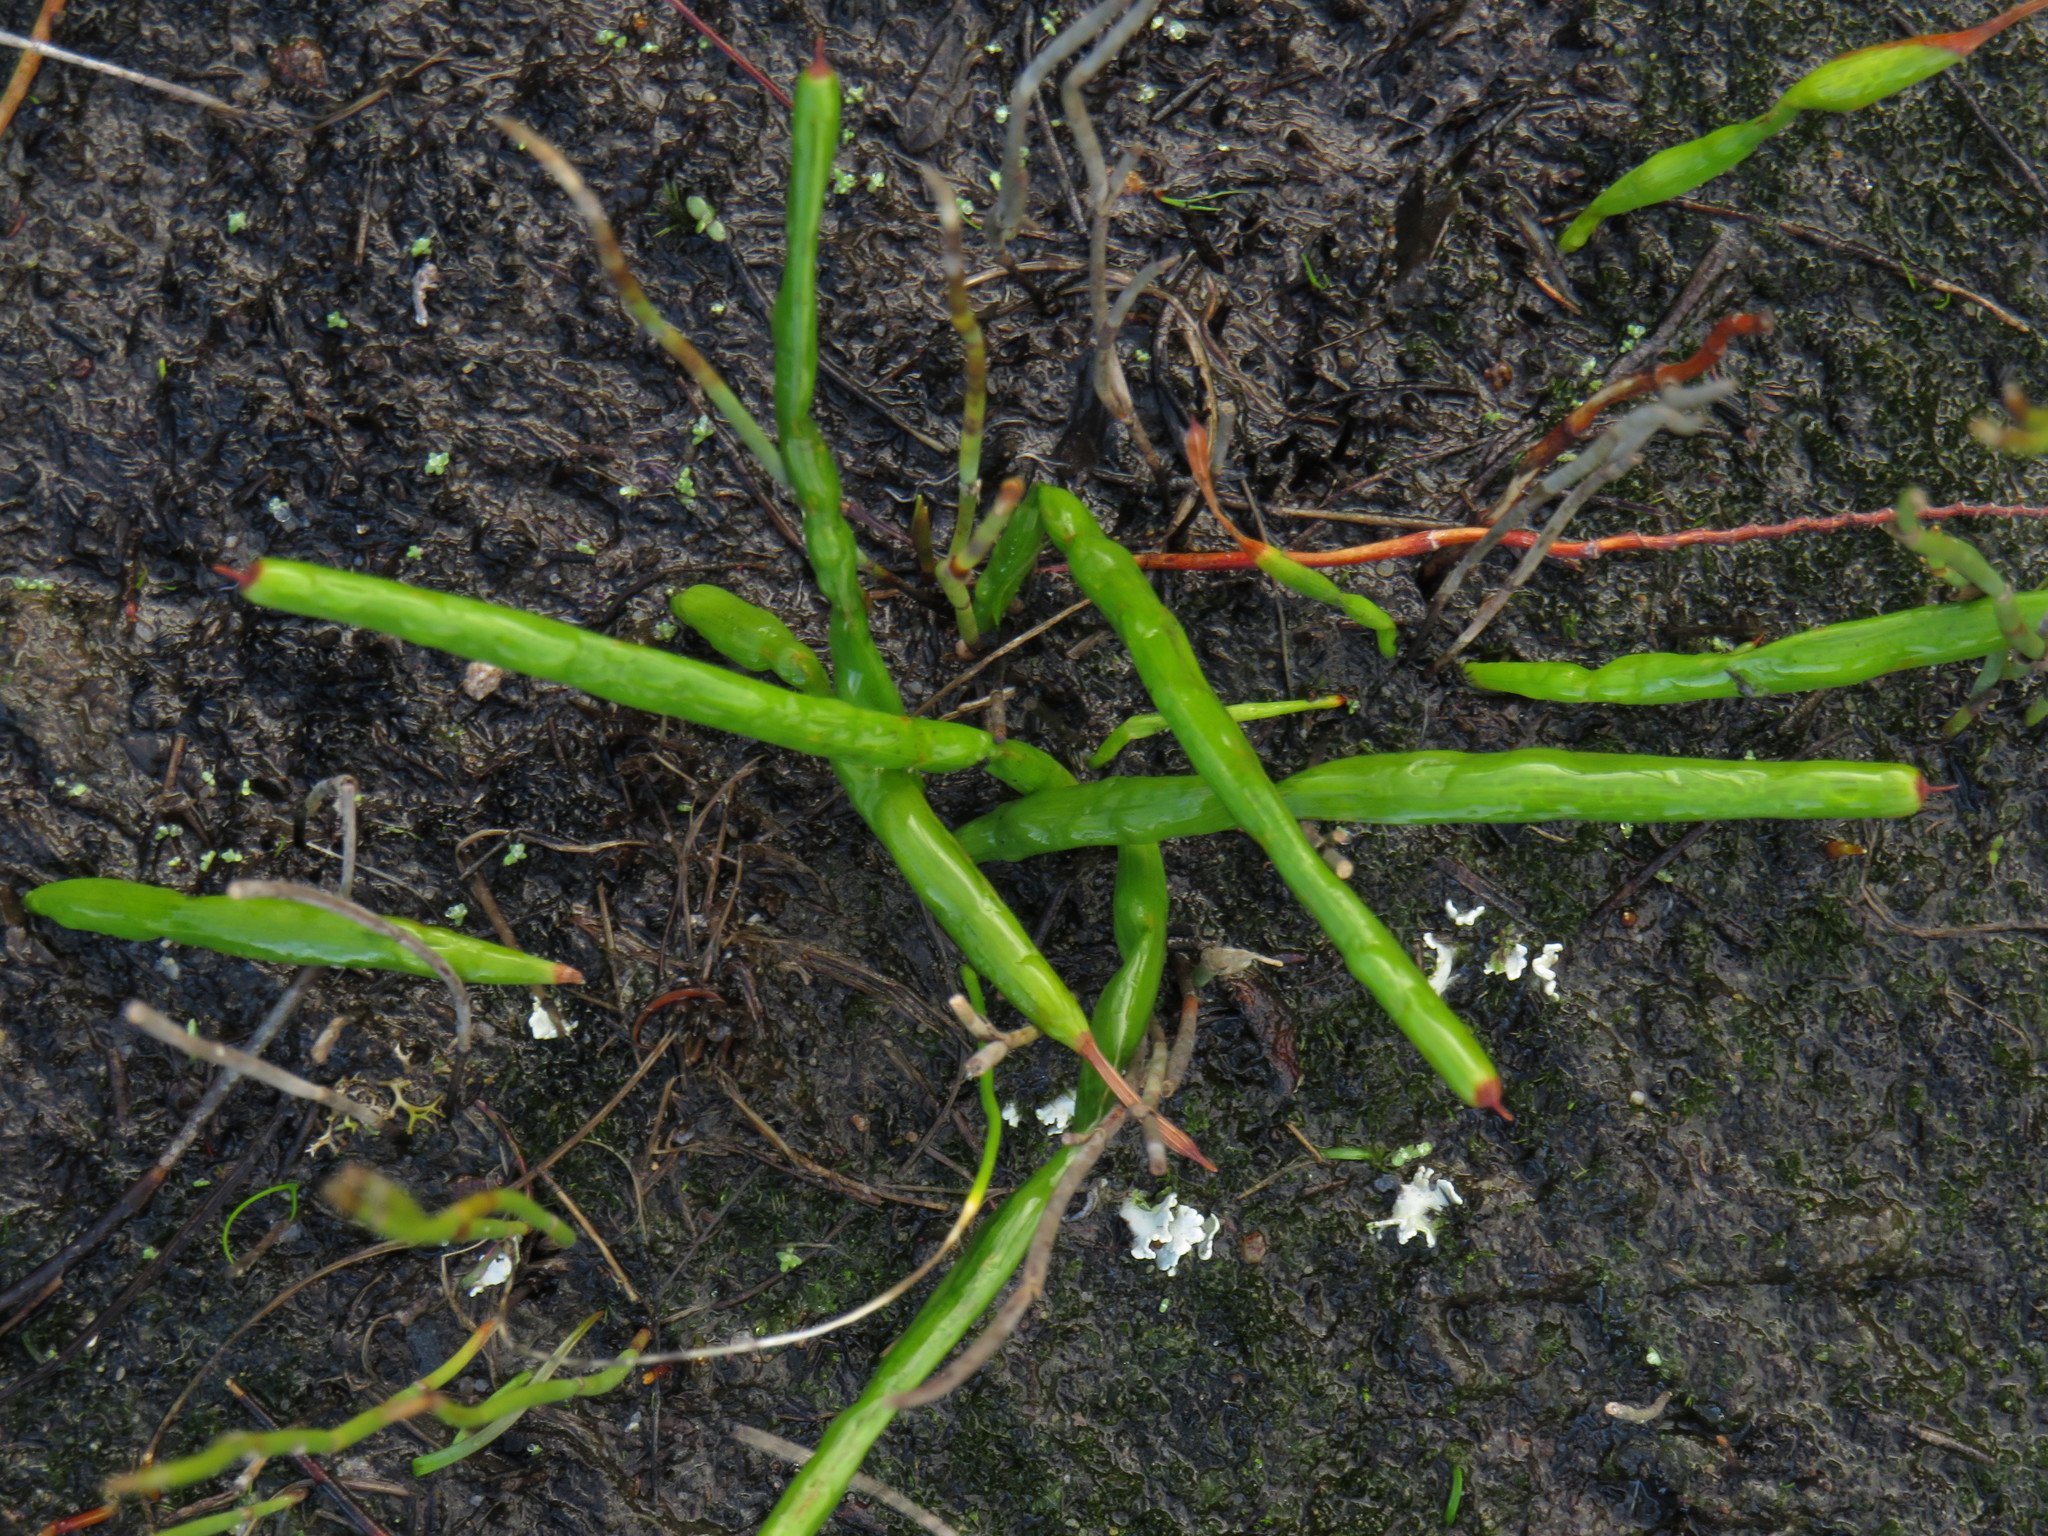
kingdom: Plantae
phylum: Tracheophyta
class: Liliopsida
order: Asparagales
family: Iridaceae
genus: Micranthus
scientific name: Micranthus tubulosus
